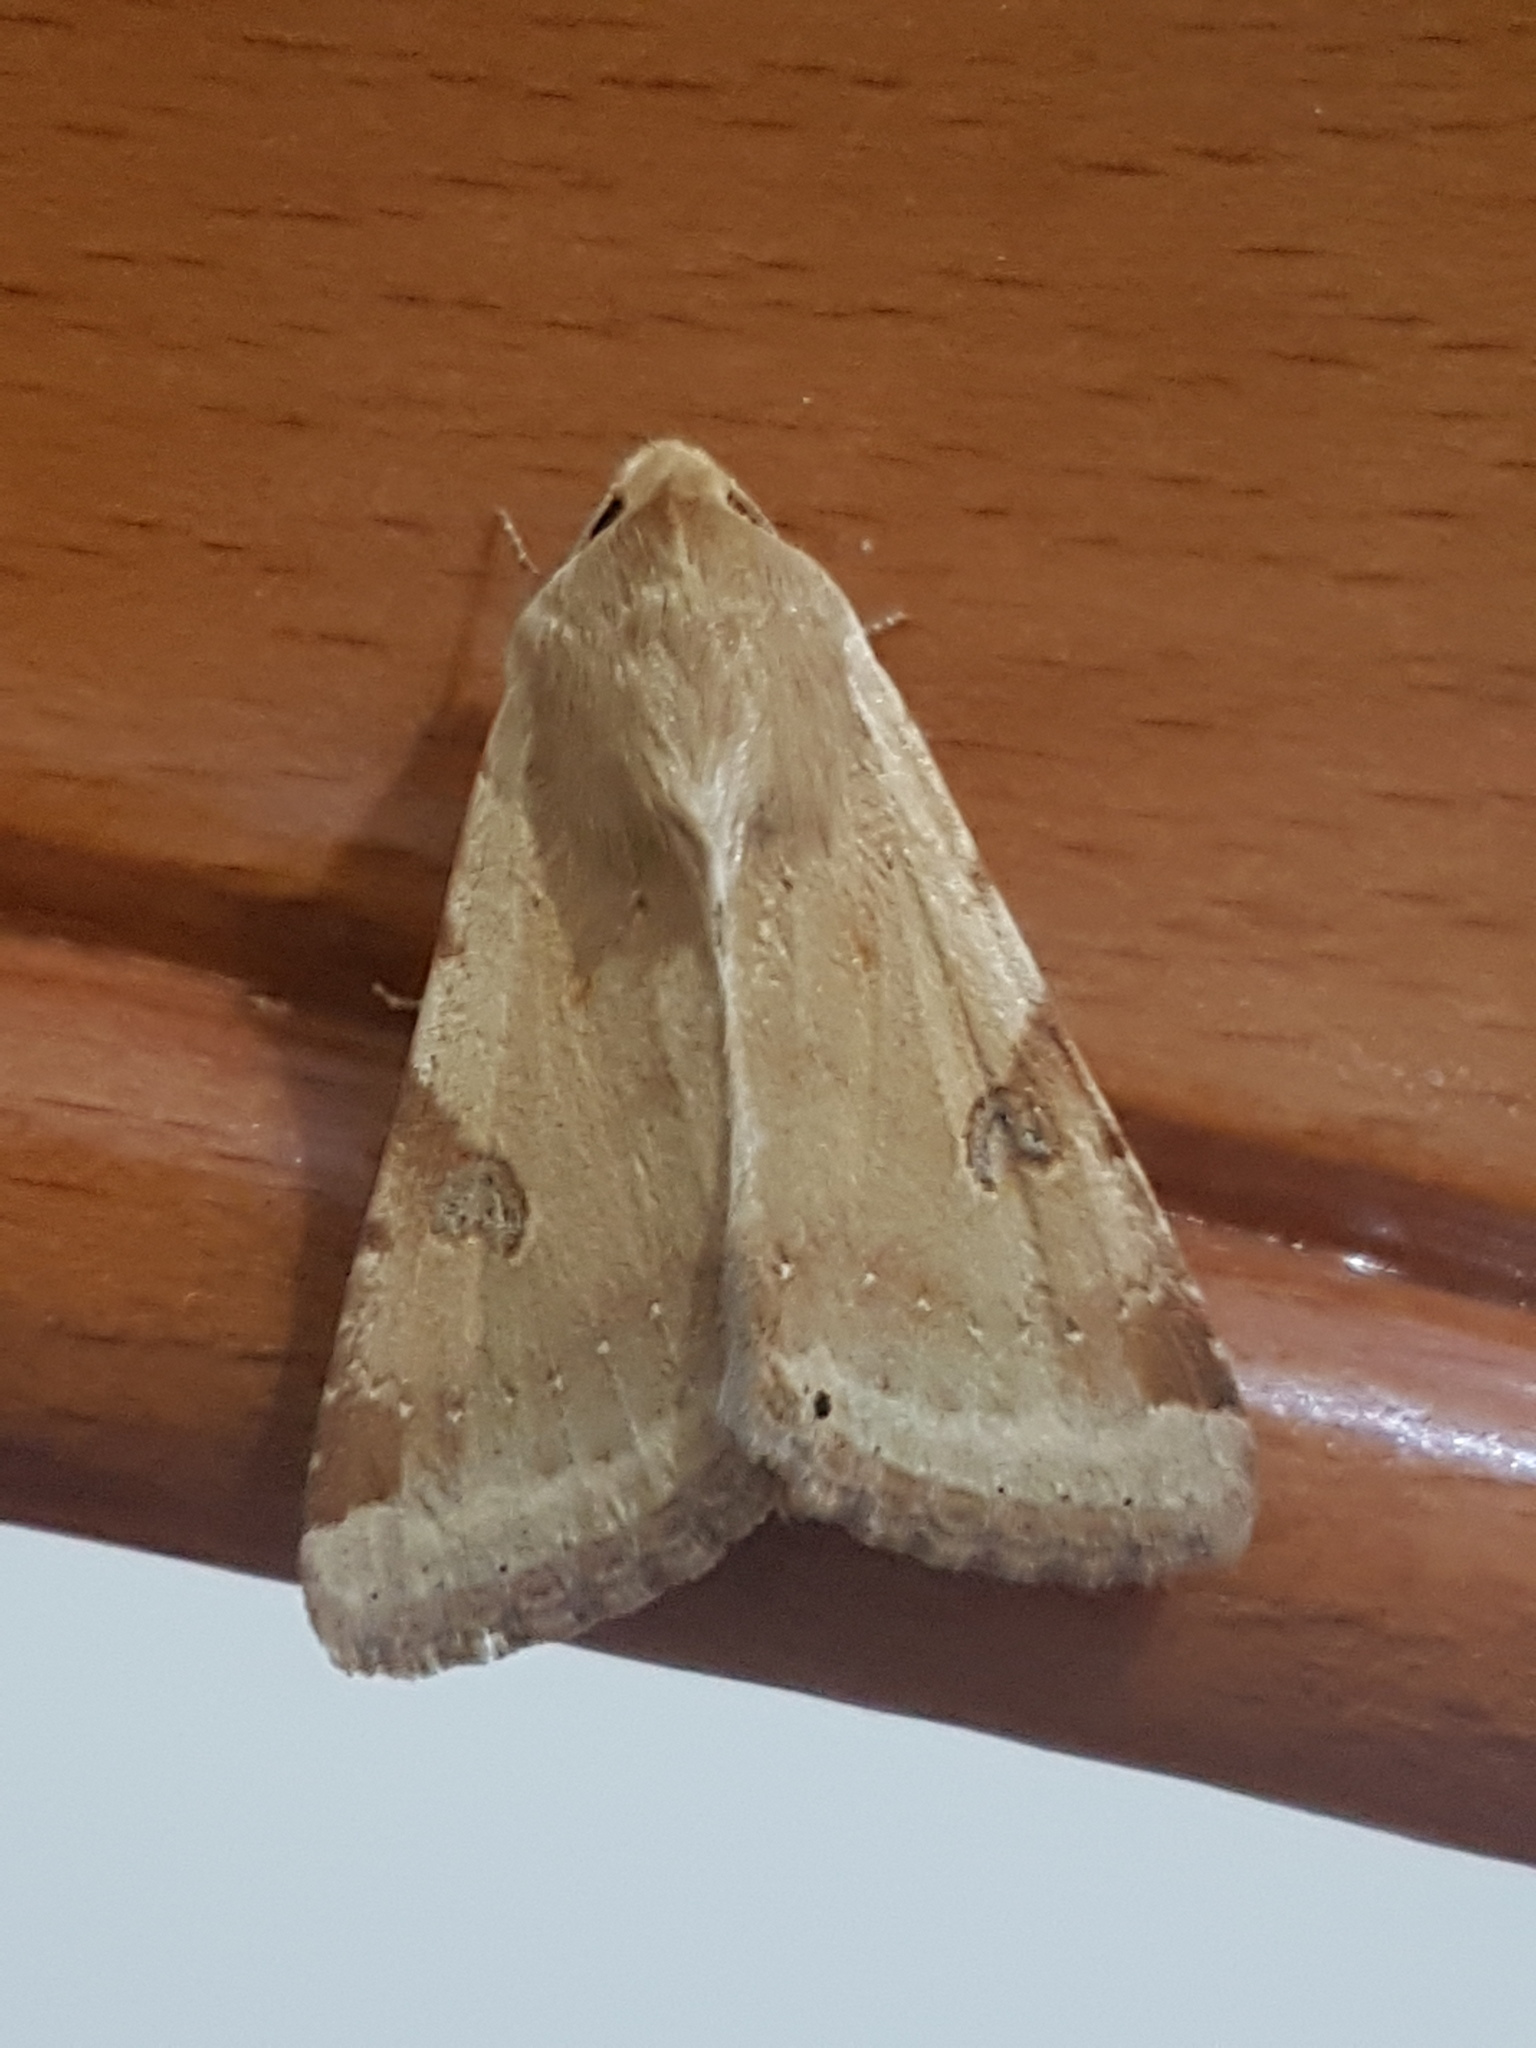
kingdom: Animalia
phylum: Arthropoda
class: Insecta
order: Lepidoptera
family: Noctuidae
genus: Heliothis
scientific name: Heliothis peltigera
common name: Bordered straw
